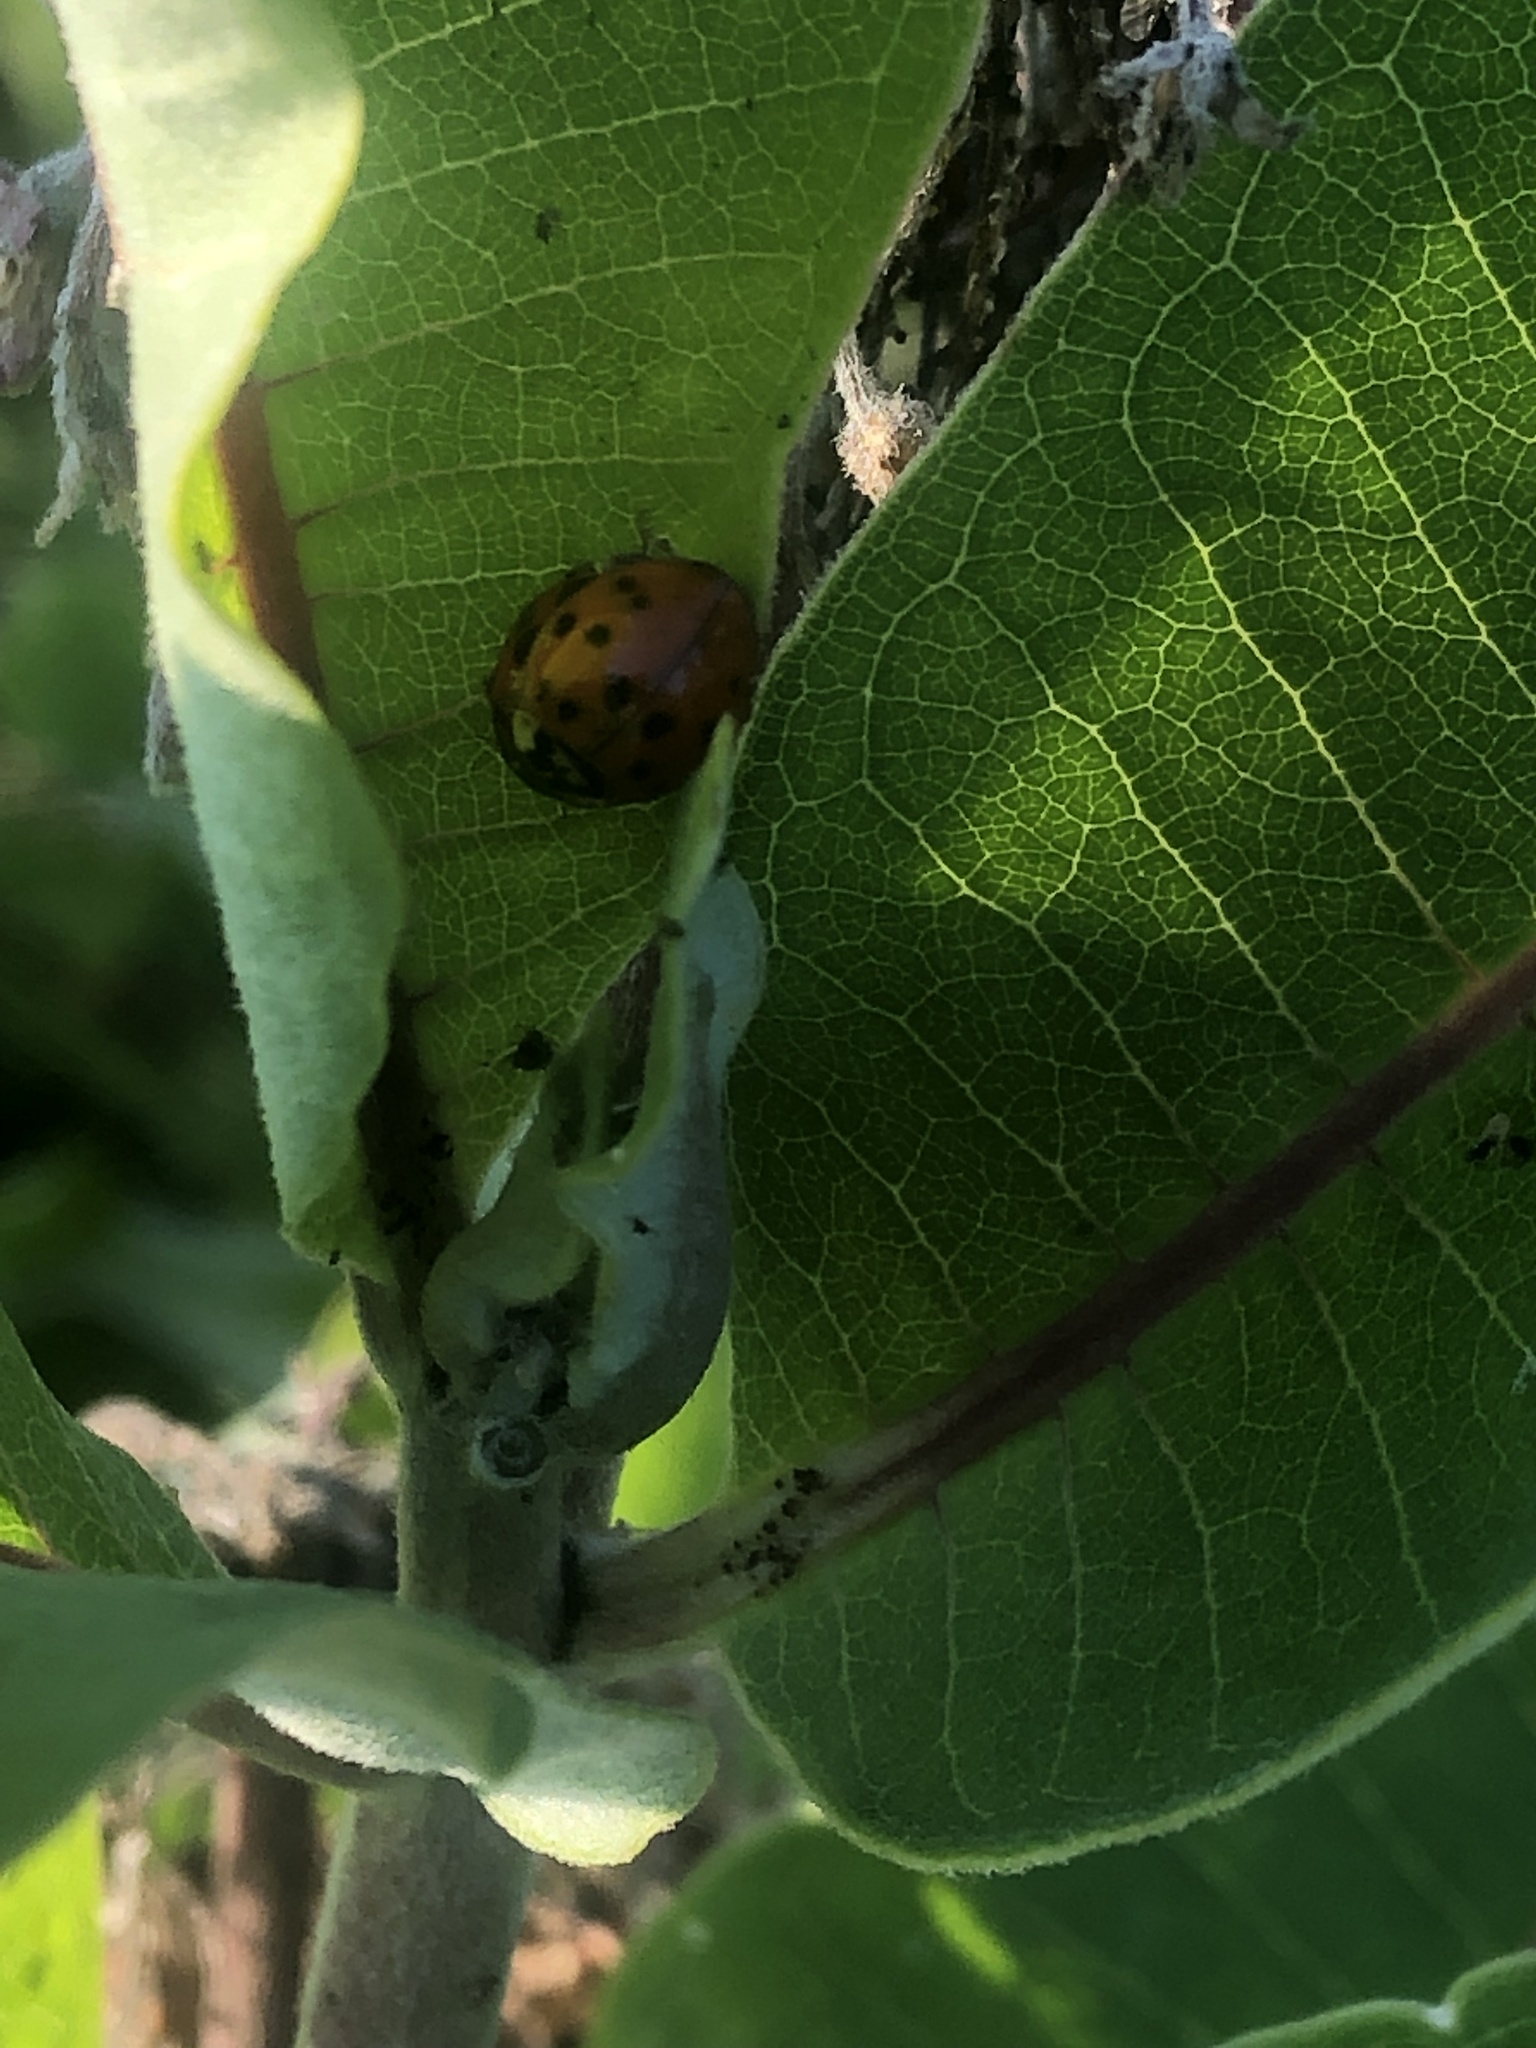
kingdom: Animalia
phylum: Arthropoda
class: Insecta
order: Coleoptera
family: Coccinellidae
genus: Harmonia
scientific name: Harmonia axyridis
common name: Harlequin ladybird
